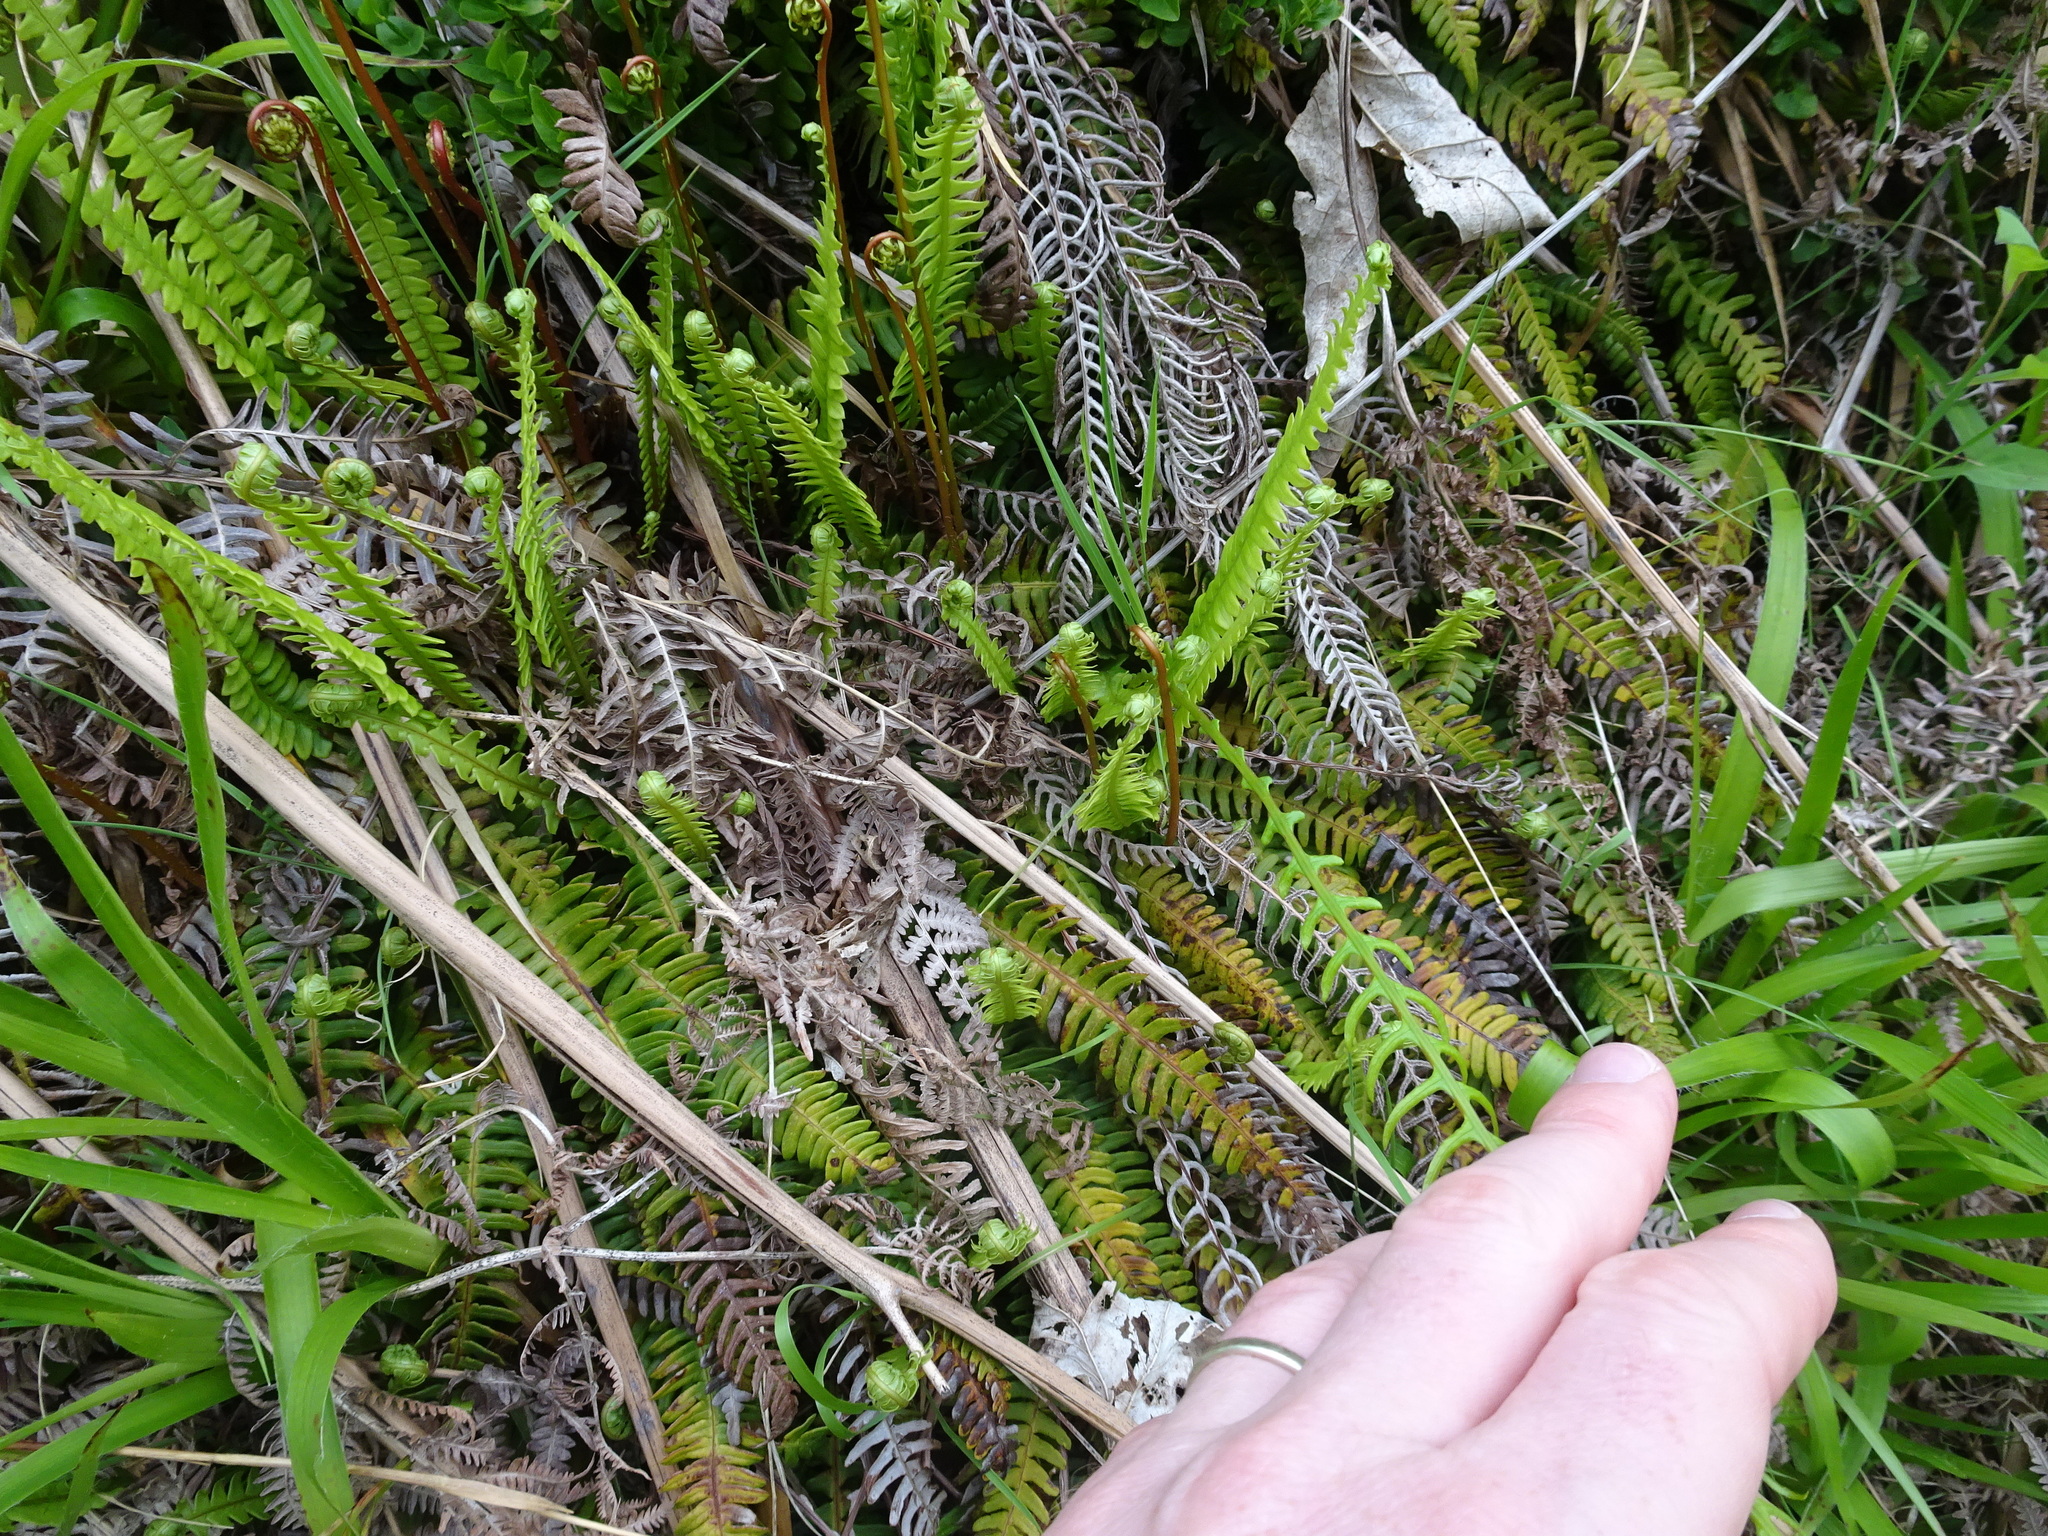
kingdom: Plantae
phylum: Tracheophyta
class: Polypodiopsida
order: Polypodiales
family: Blechnaceae
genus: Struthiopteris
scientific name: Struthiopteris spicant
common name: Deer fern
